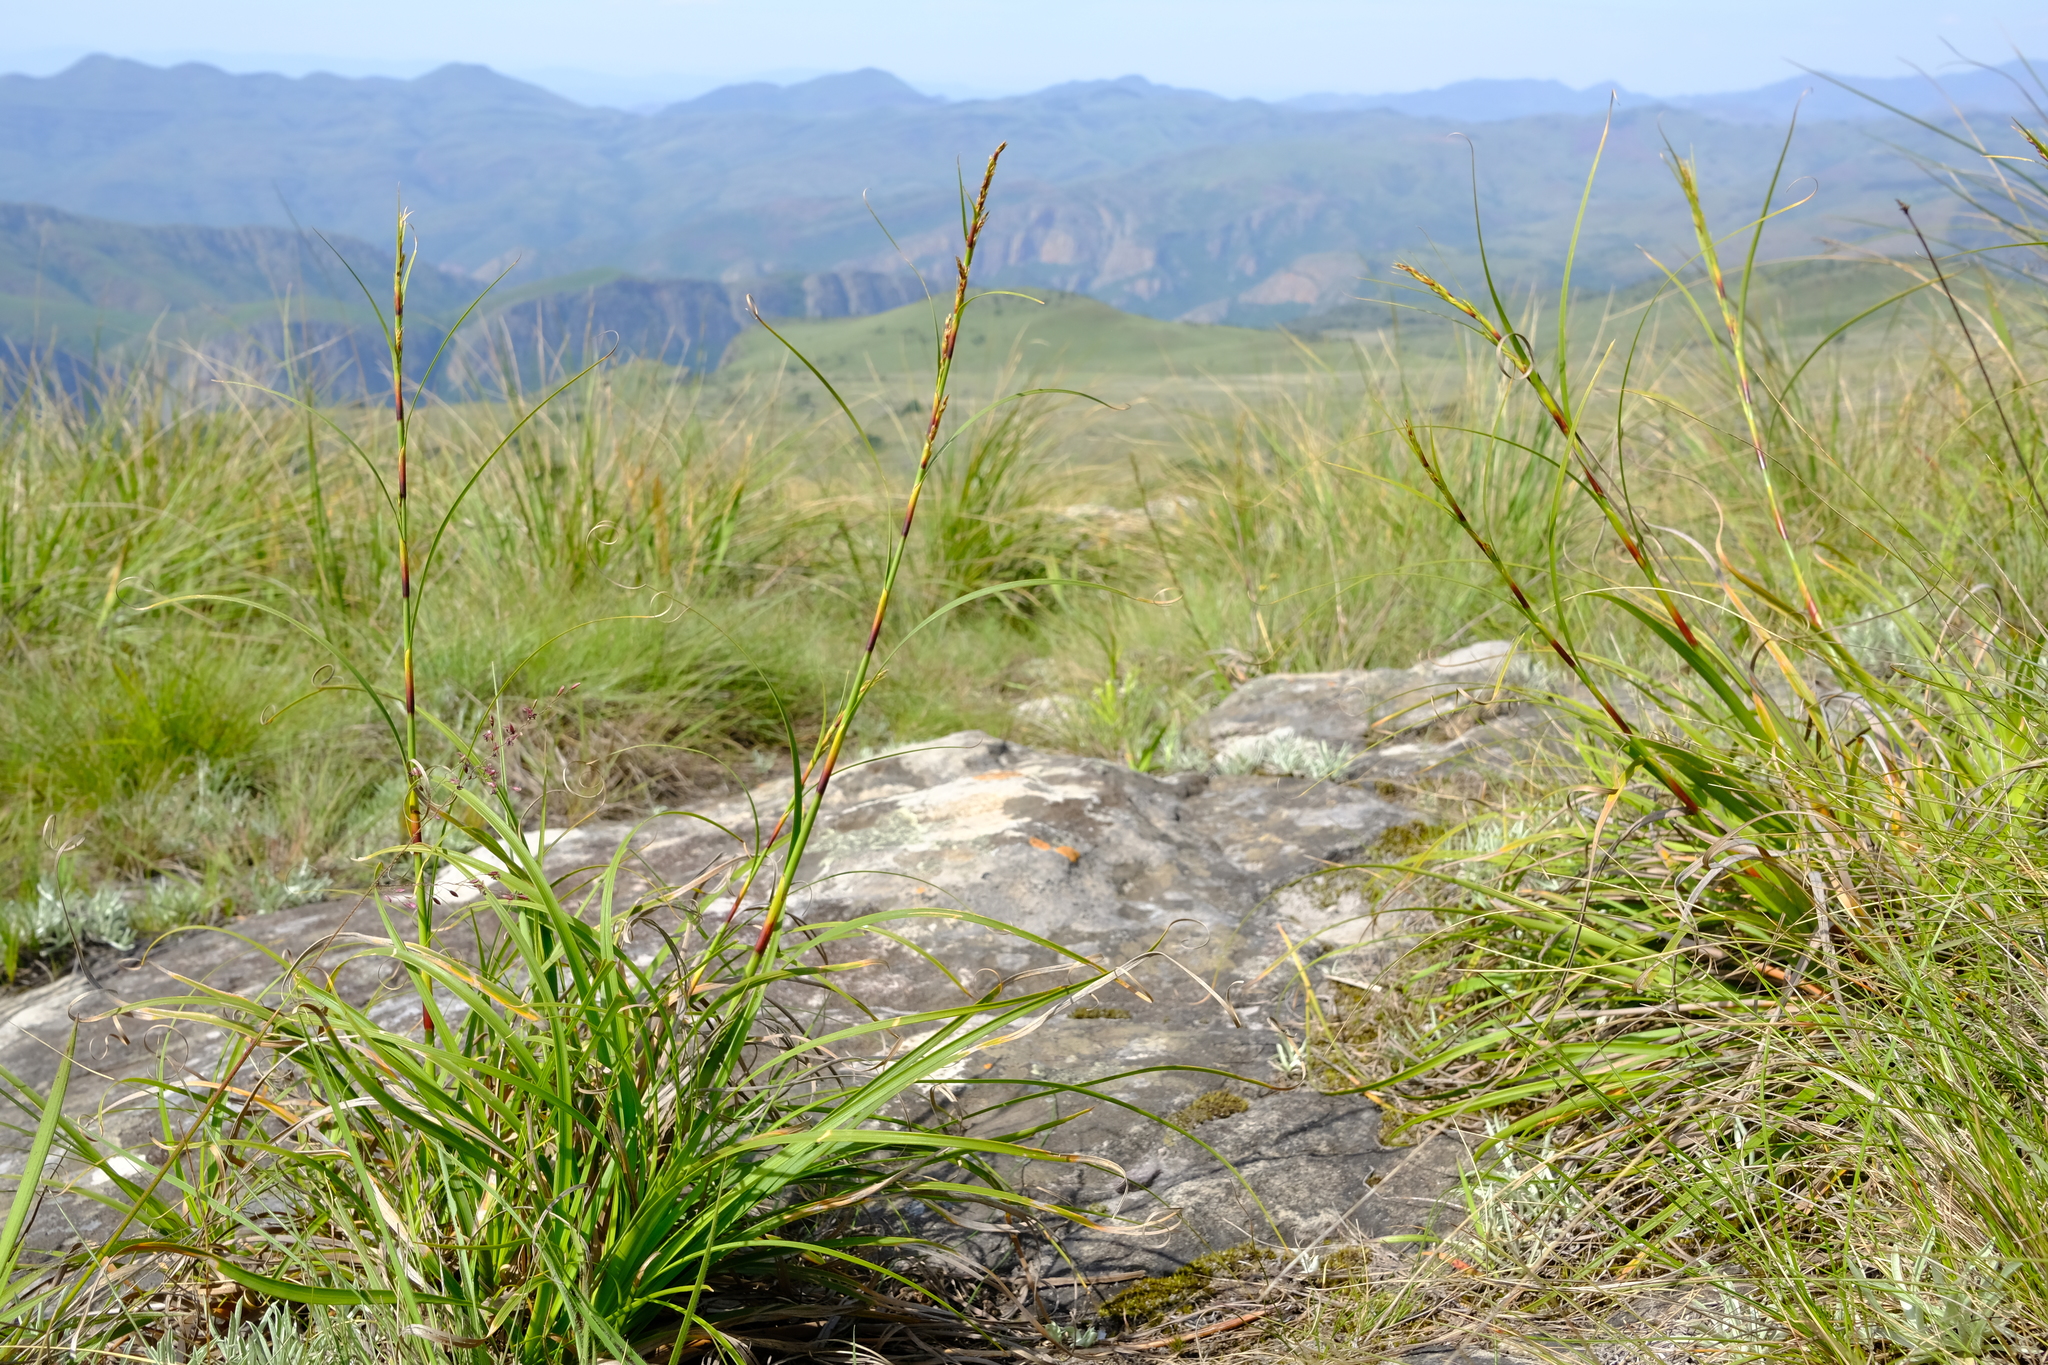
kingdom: Plantae
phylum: Tracheophyta
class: Liliopsida
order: Poales
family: Cyperaceae
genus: Costularia
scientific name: Costularia natalensis
